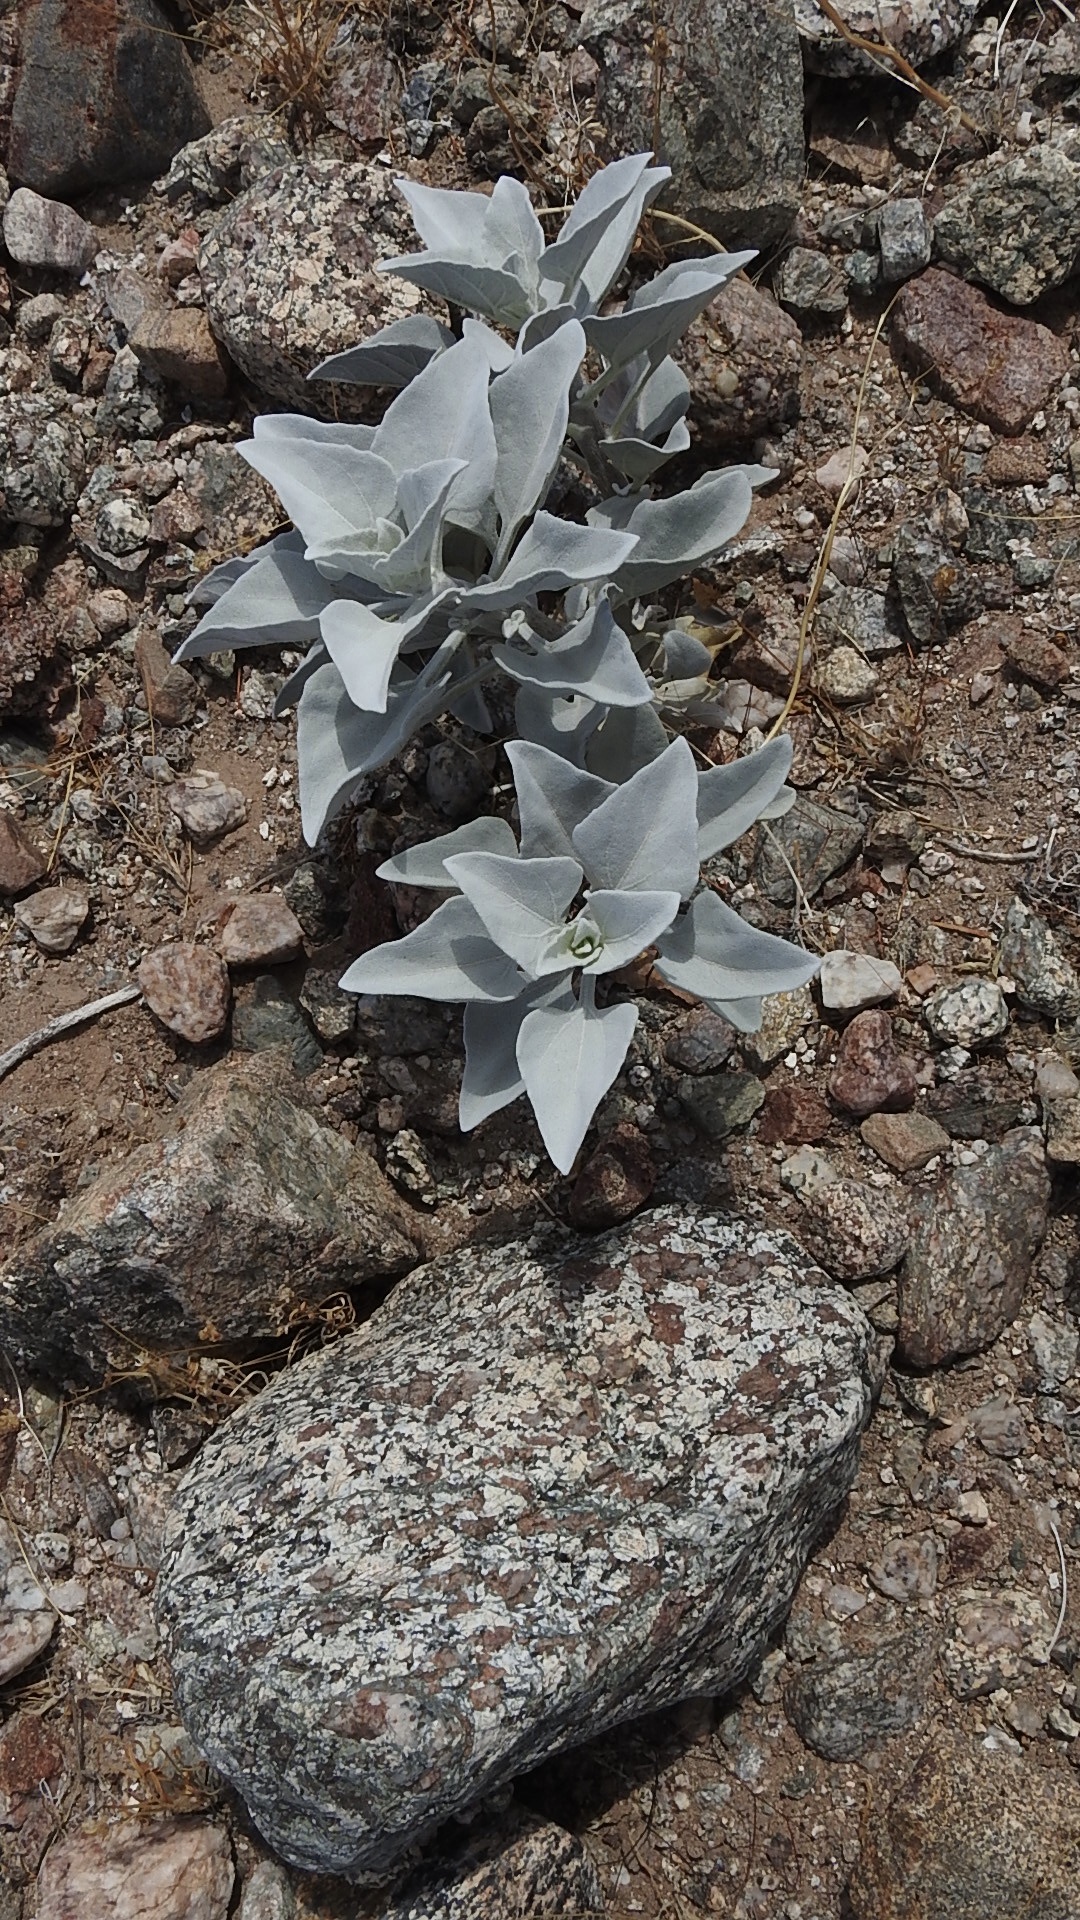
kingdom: Plantae
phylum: Tracheophyta
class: Magnoliopsida
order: Asterales
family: Asteraceae
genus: Encelia
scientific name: Encelia farinosa
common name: Brittlebush
